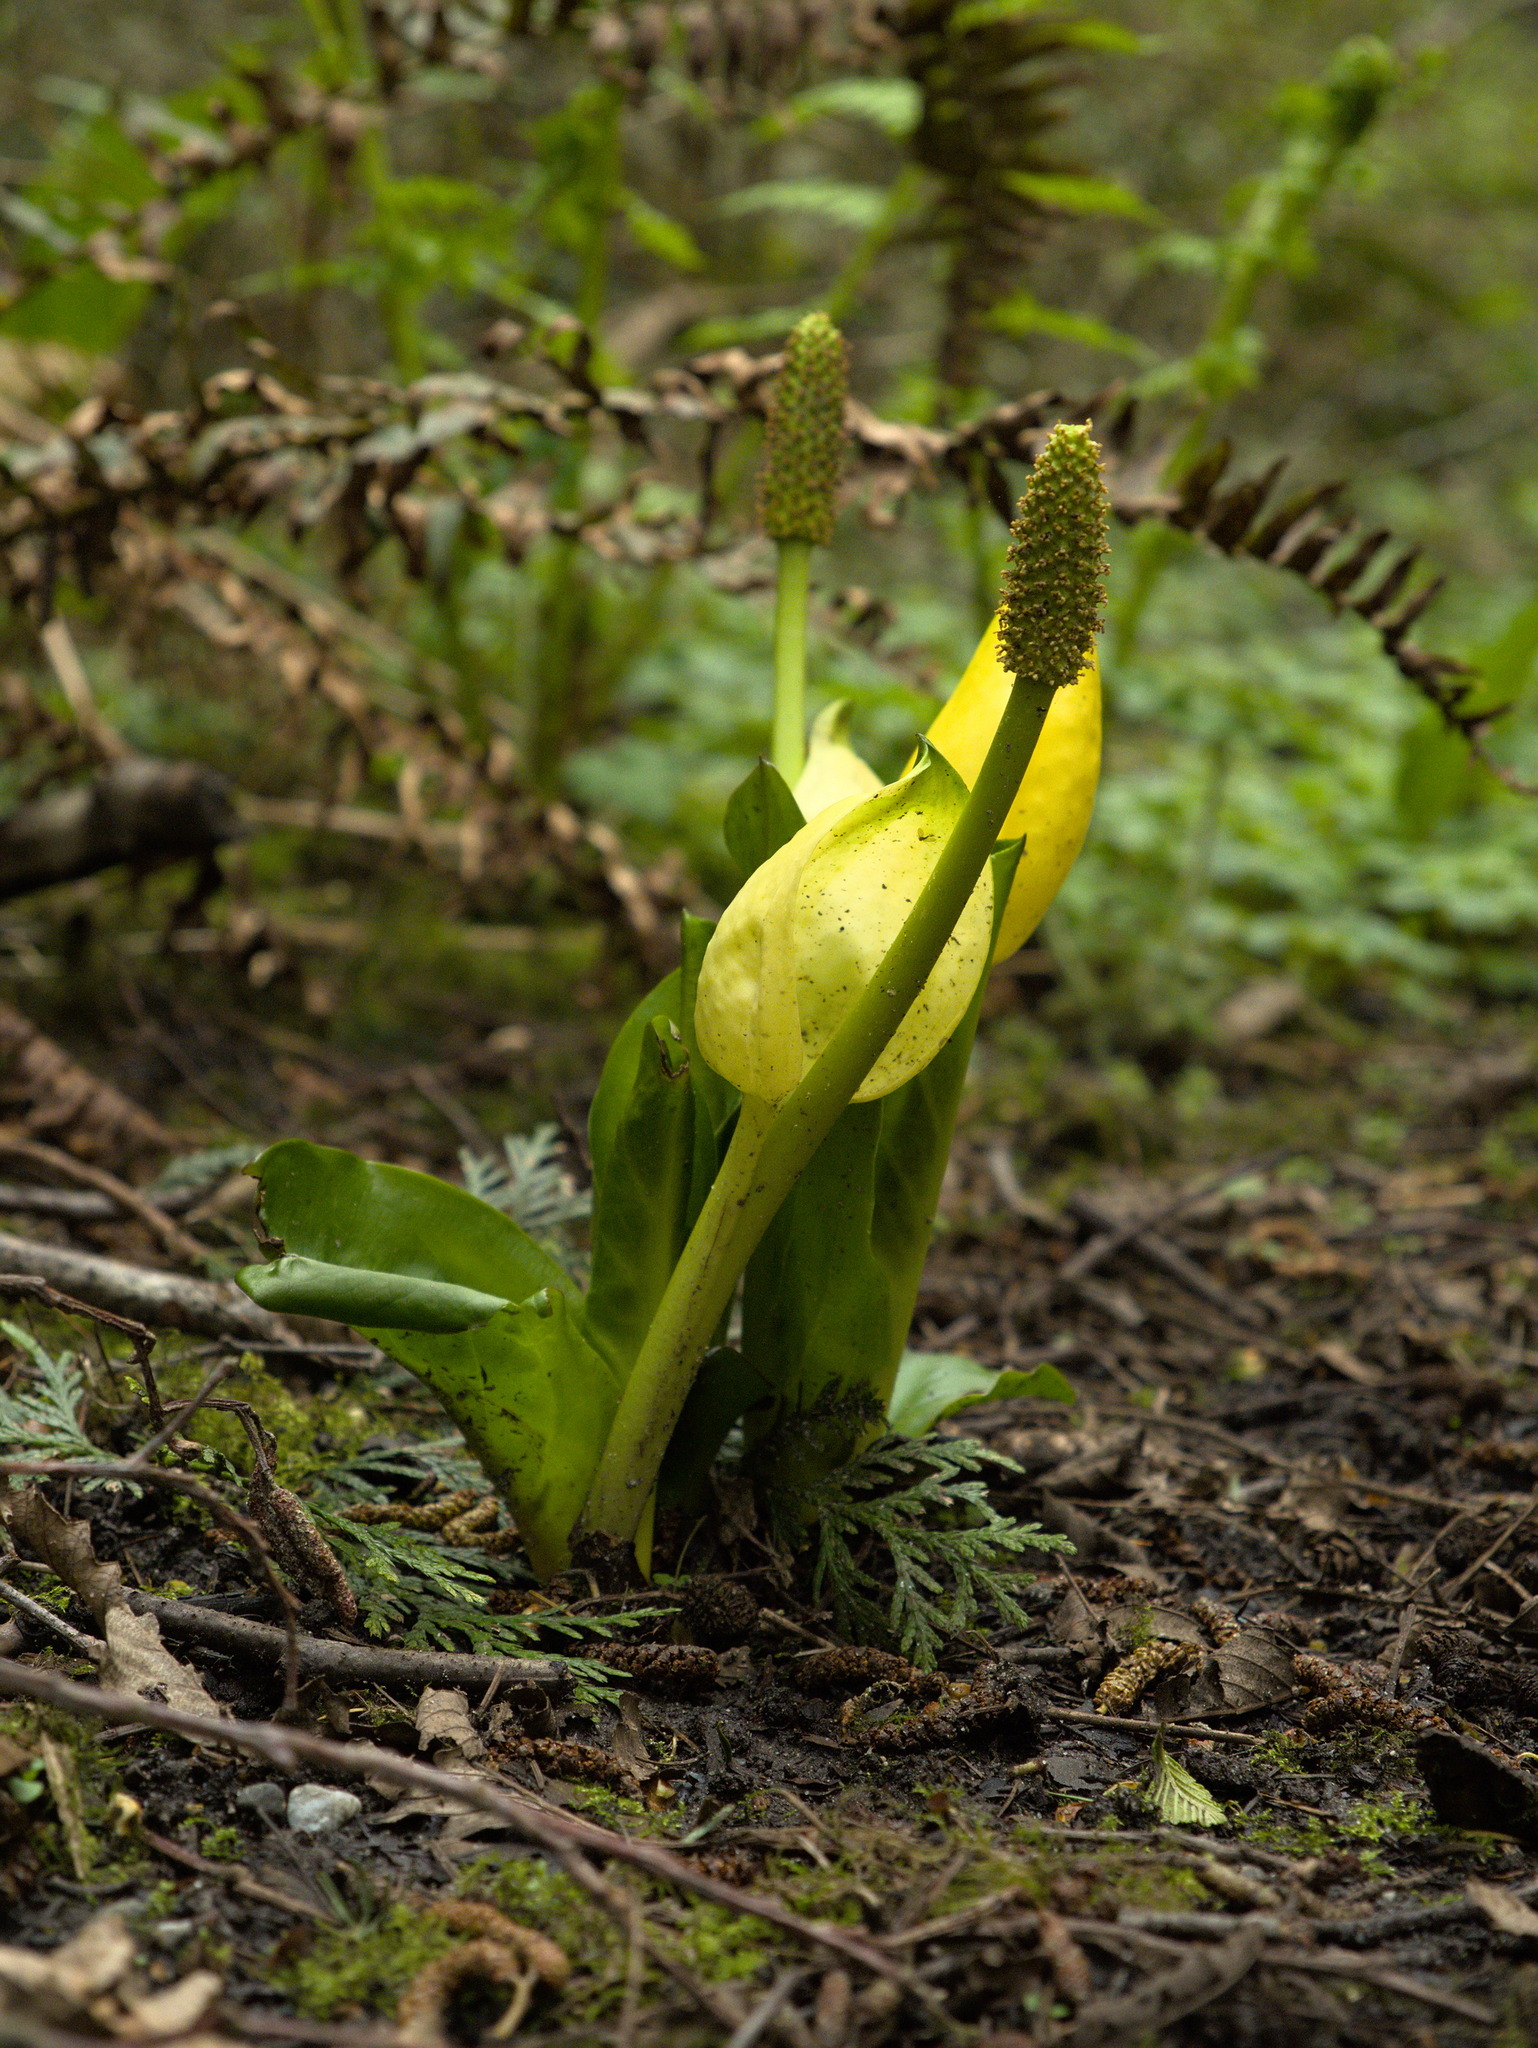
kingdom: Plantae
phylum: Tracheophyta
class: Liliopsida
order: Alismatales
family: Araceae
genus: Lysichiton
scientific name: Lysichiton americanus
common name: American skunk cabbage
